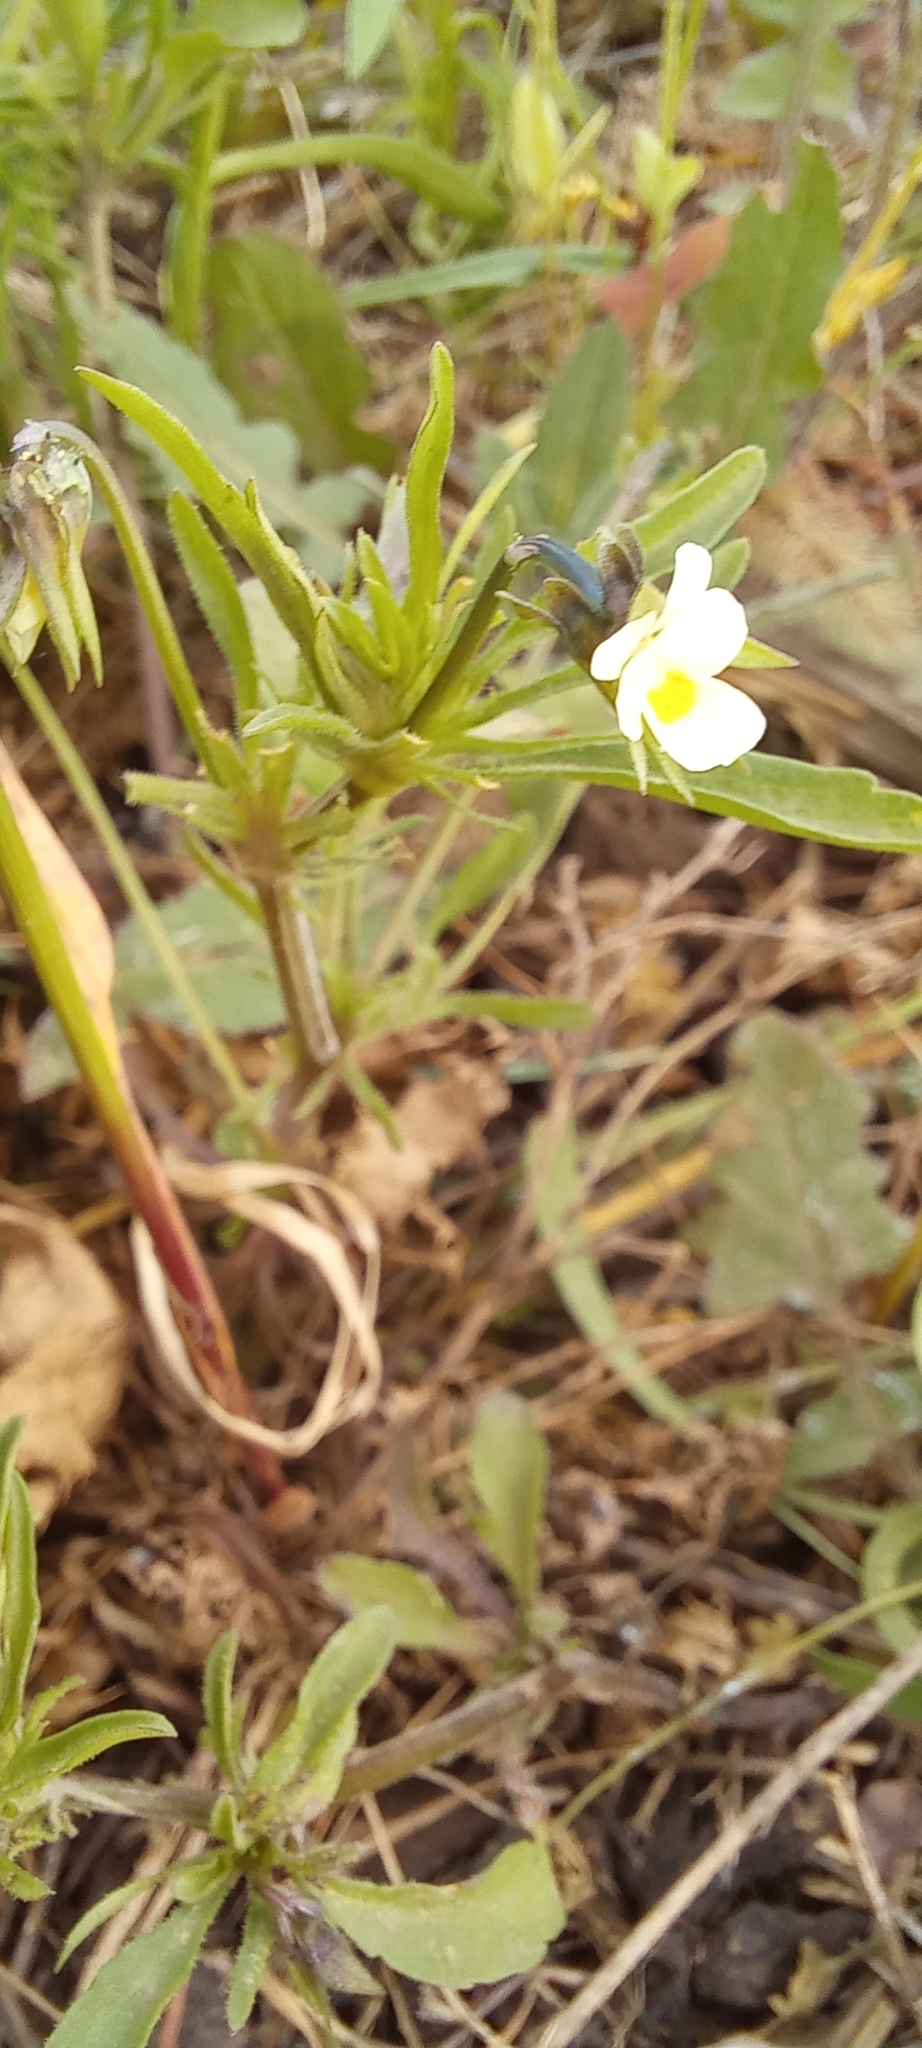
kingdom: Plantae
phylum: Tracheophyta
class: Magnoliopsida
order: Malpighiales
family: Violaceae
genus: Viola
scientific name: Viola arvensis
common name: Field pansy
